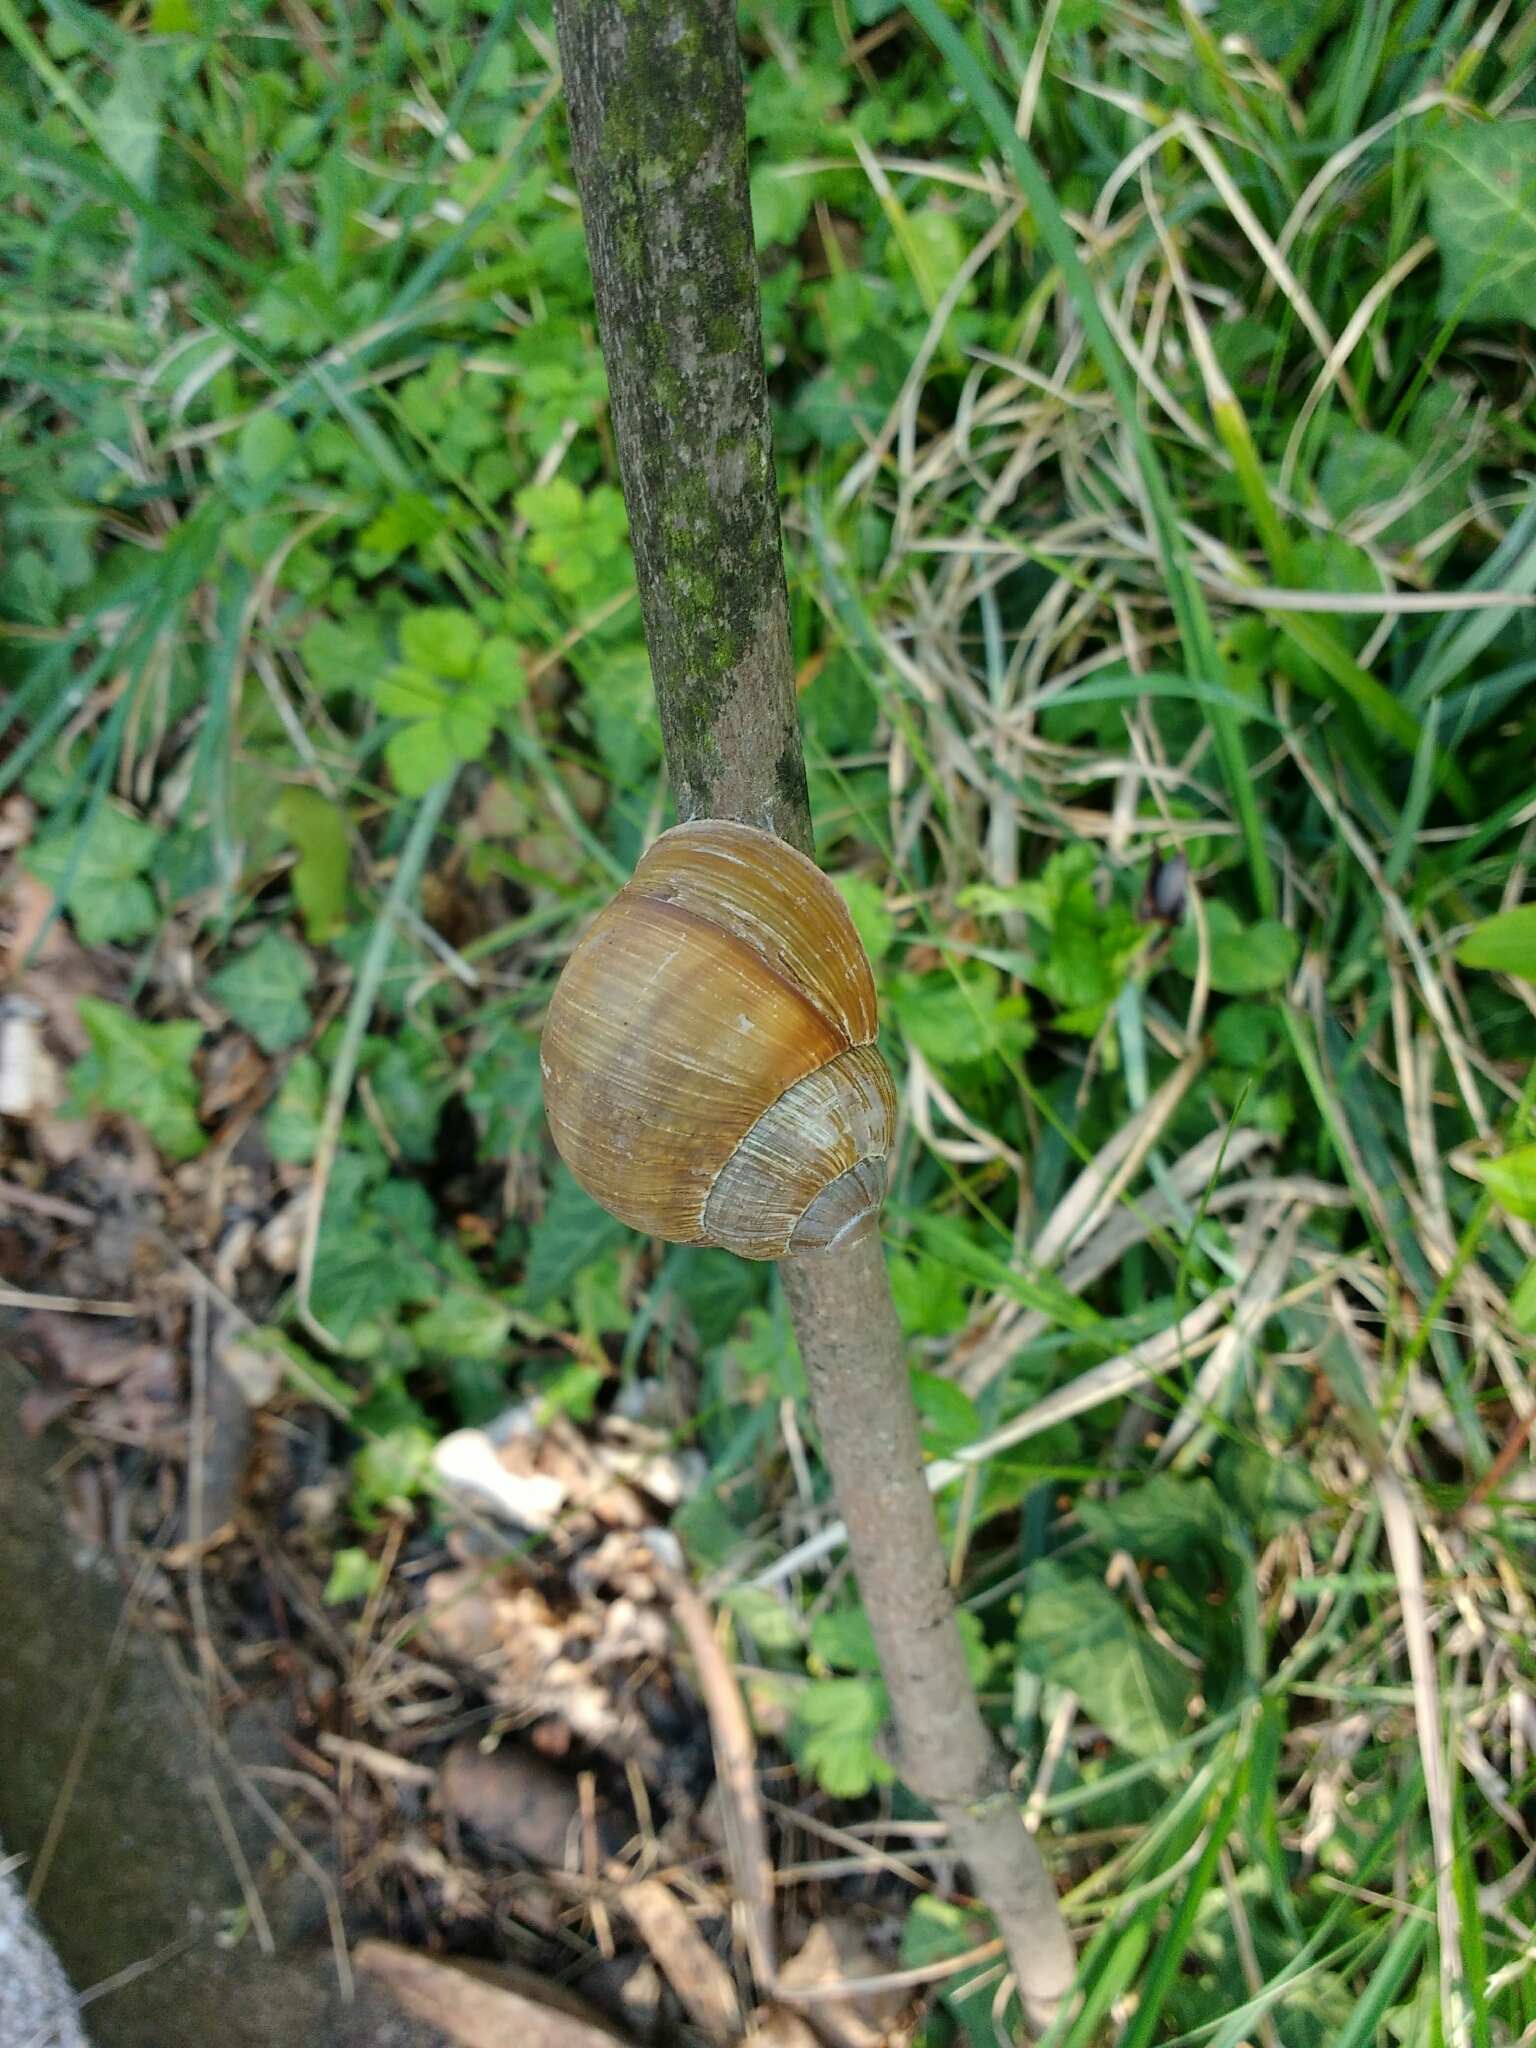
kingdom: Animalia
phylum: Mollusca
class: Gastropoda
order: Stylommatophora
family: Helicidae
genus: Helix
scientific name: Helix pomatia
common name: Roman snail
